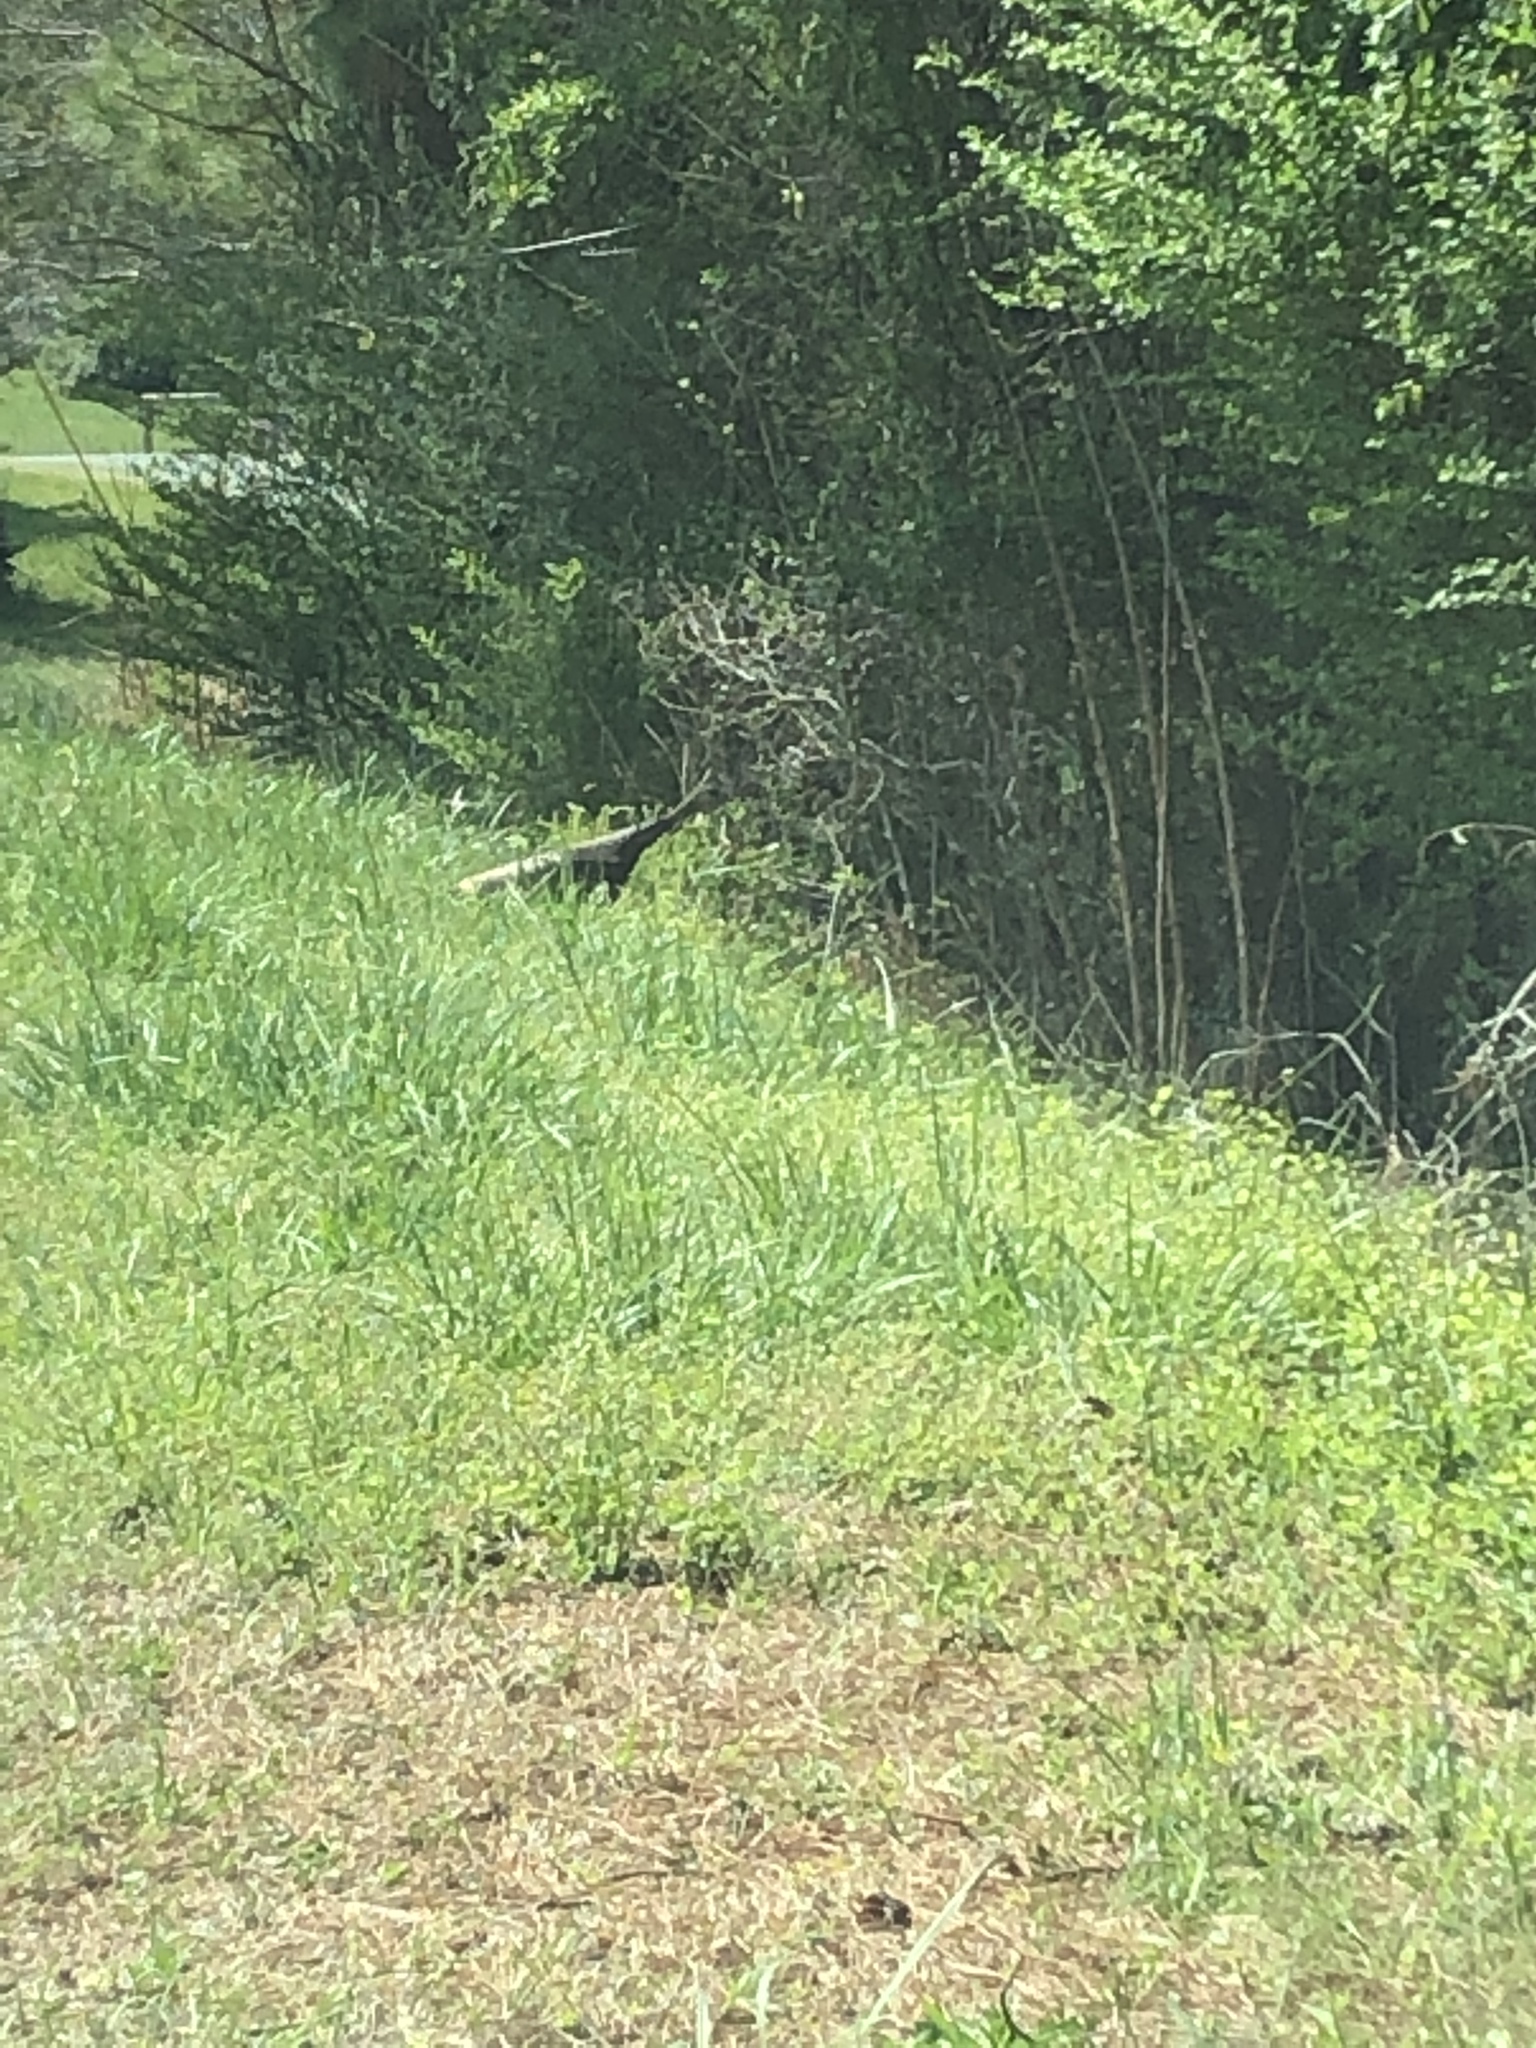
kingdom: Animalia
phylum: Chordata
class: Aves
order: Galliformes
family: Phasianidae
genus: Meleagris
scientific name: Meleagris gallopavo
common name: Wild turkey
